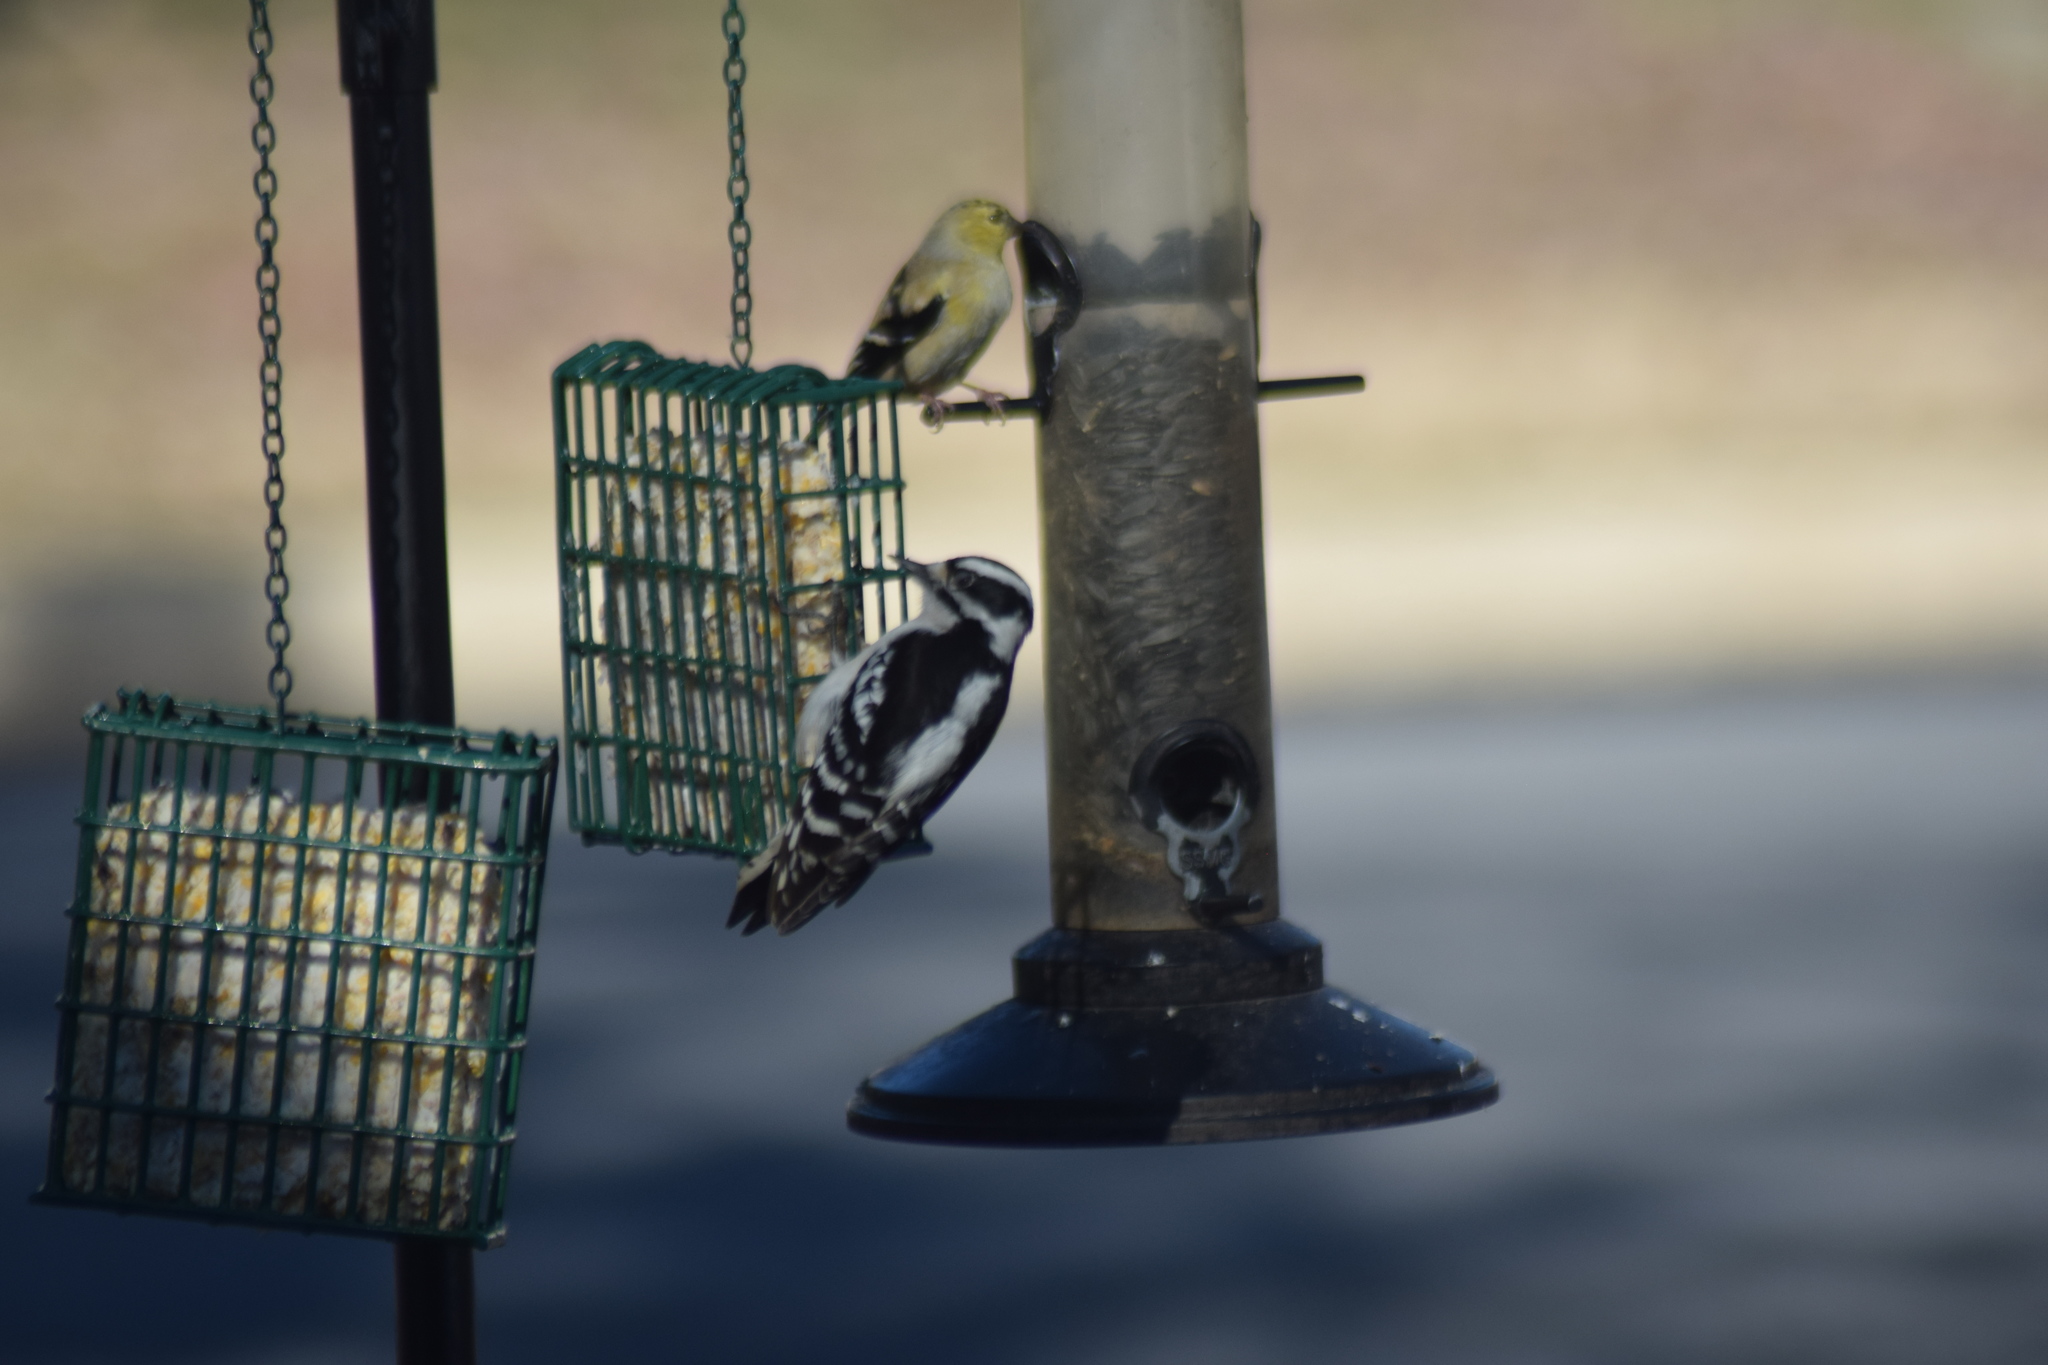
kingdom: Animalia
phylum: Chordata
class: Aves
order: Piciformes
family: Picidae
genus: Dryobates
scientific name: Dryobates pubescens
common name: Downy woodpecker
